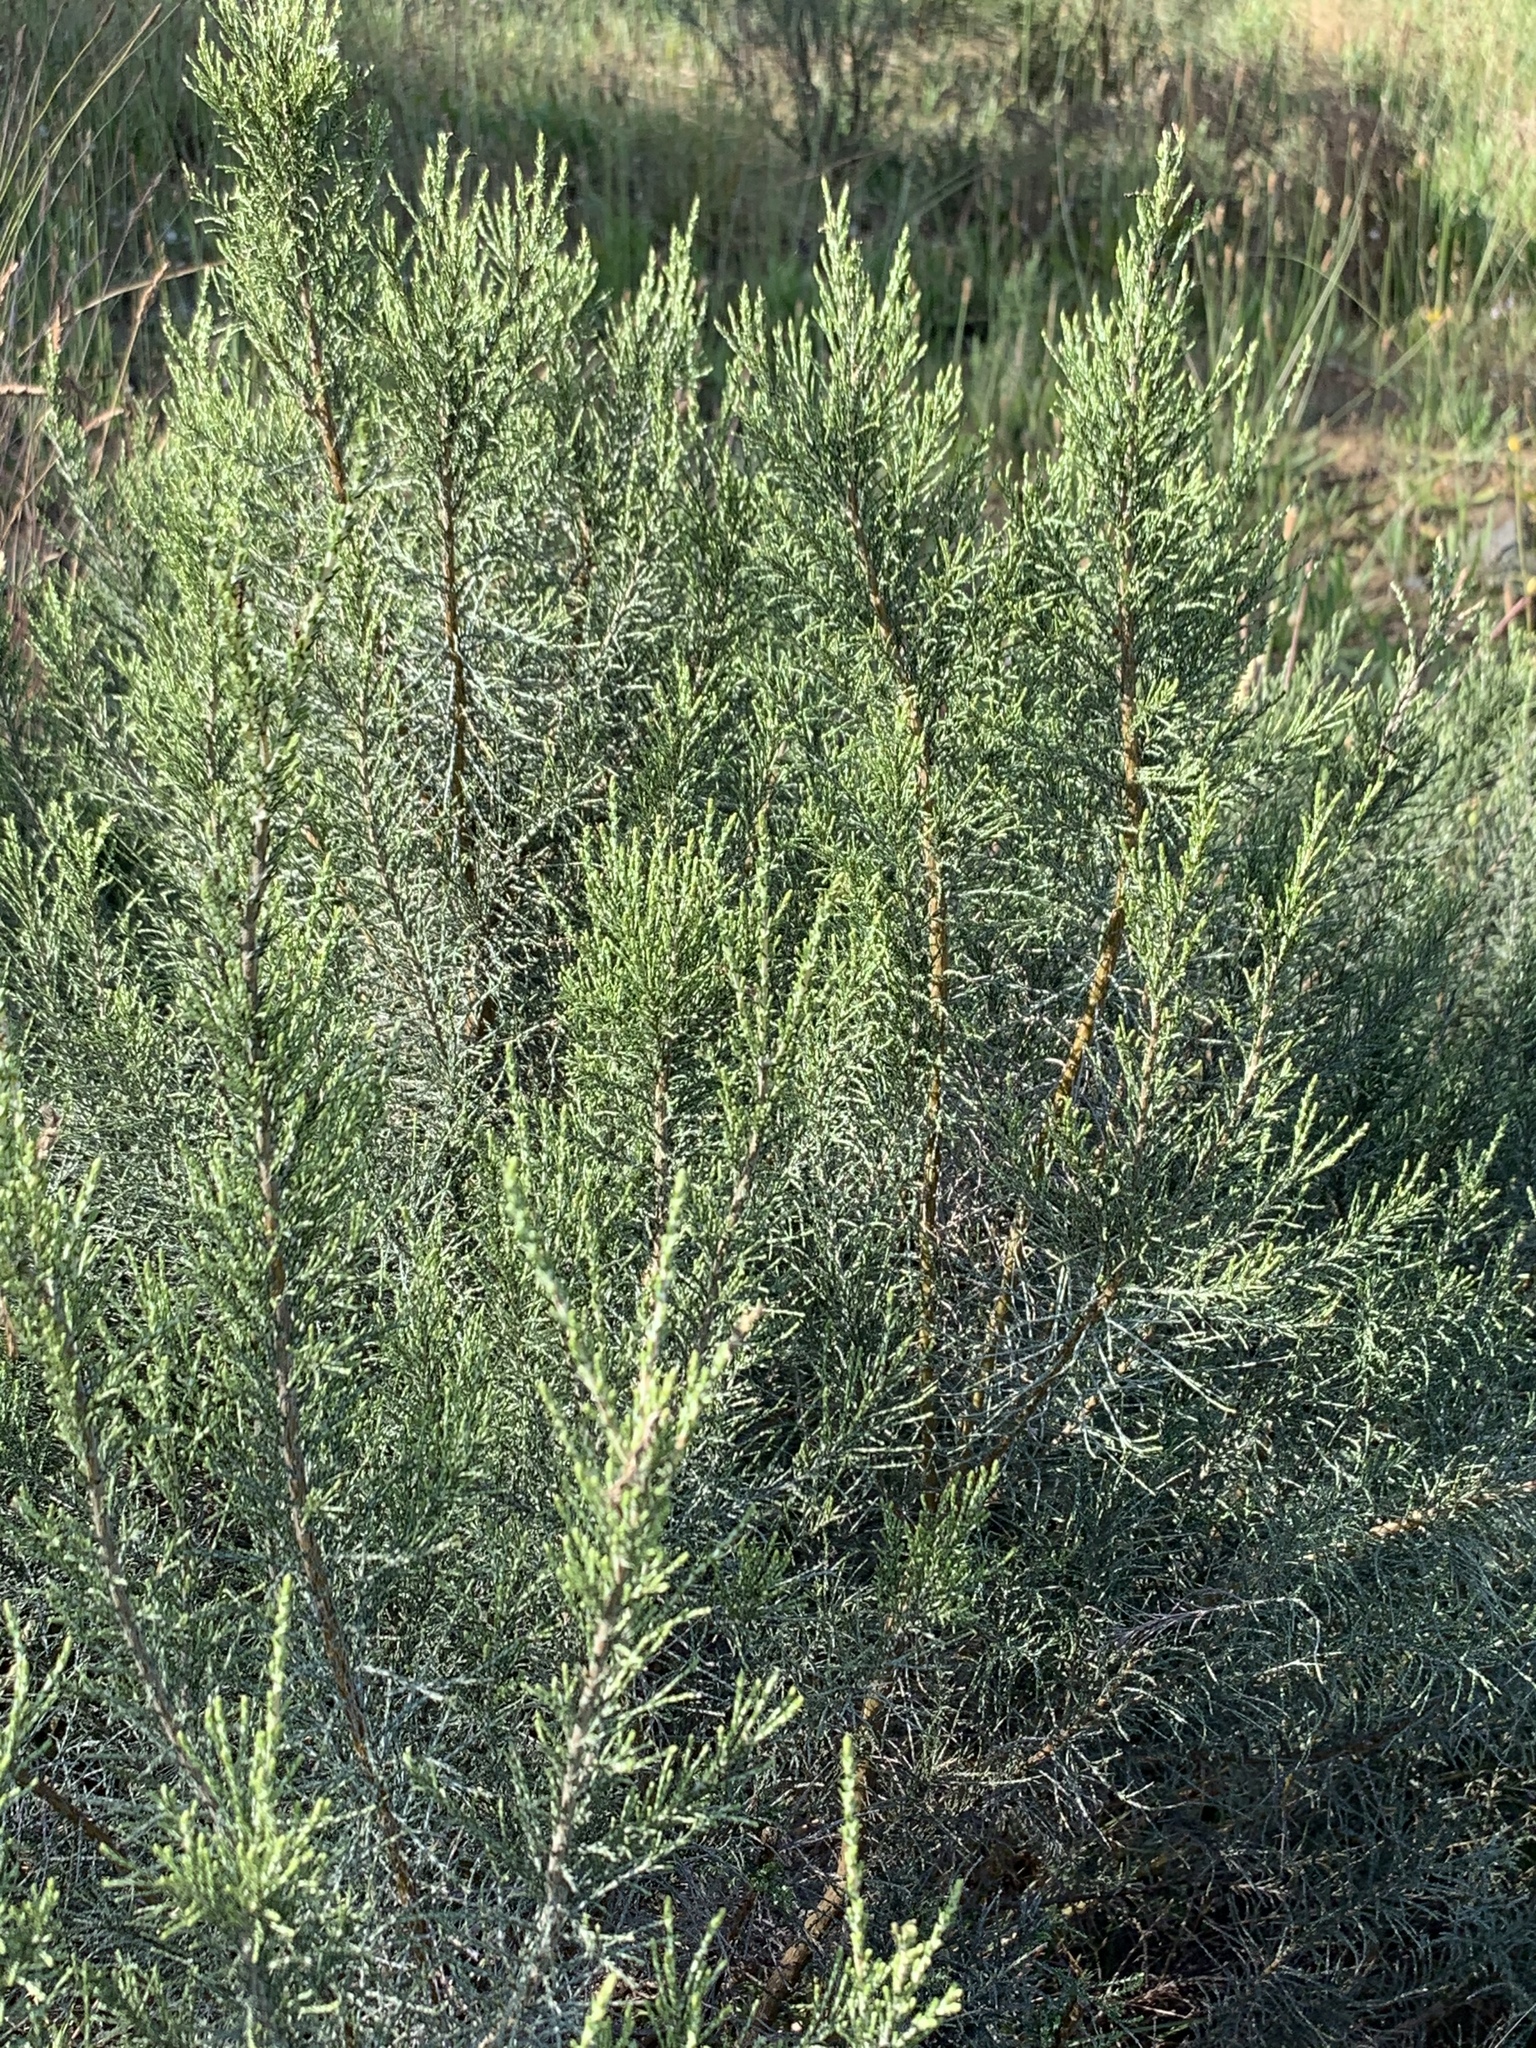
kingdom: Plantae
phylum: Tracheophyta
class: Magnoliopsida
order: Asterales
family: Asteraceae
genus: Dicerothamnus
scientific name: Dicerothamnus rhinocerotis
